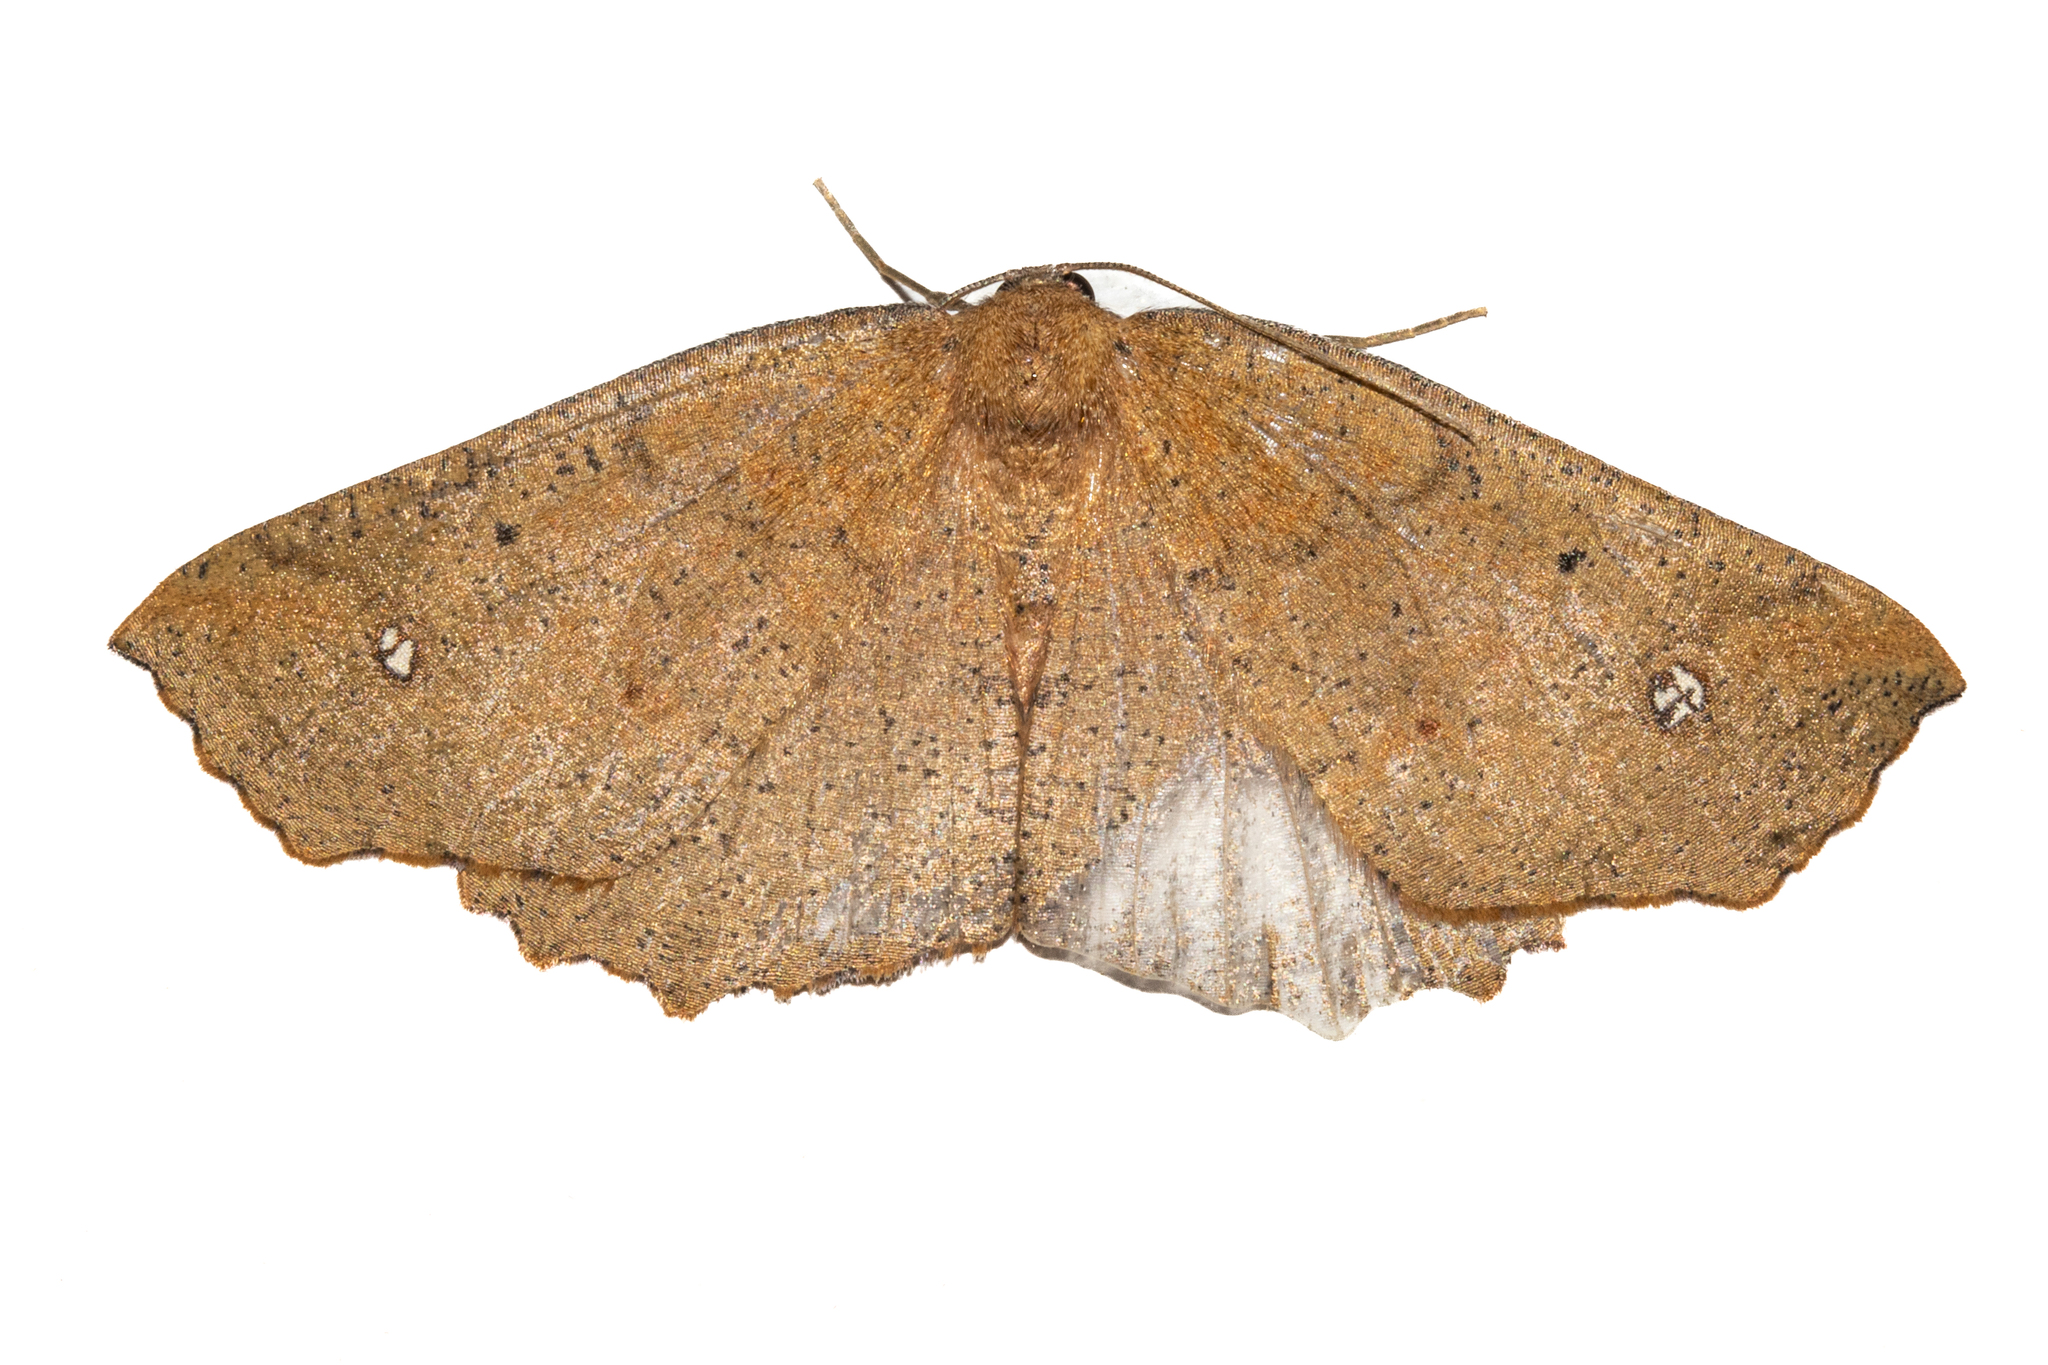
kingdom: Animalia
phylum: Arthropoda
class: Insecta
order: Lepidoptera
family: Geometridae
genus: Xyridacma
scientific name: Xyridacma ustaria
